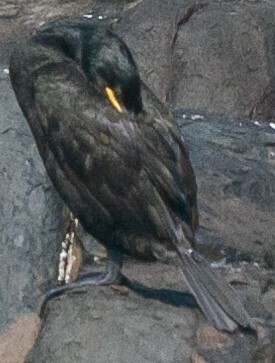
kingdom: Animalia
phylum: Chordata
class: Aves
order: Suliformes
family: Phalacrocoracidae
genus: Phalacrocorax
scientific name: Phalacrocorax aristotelis
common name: European shag
